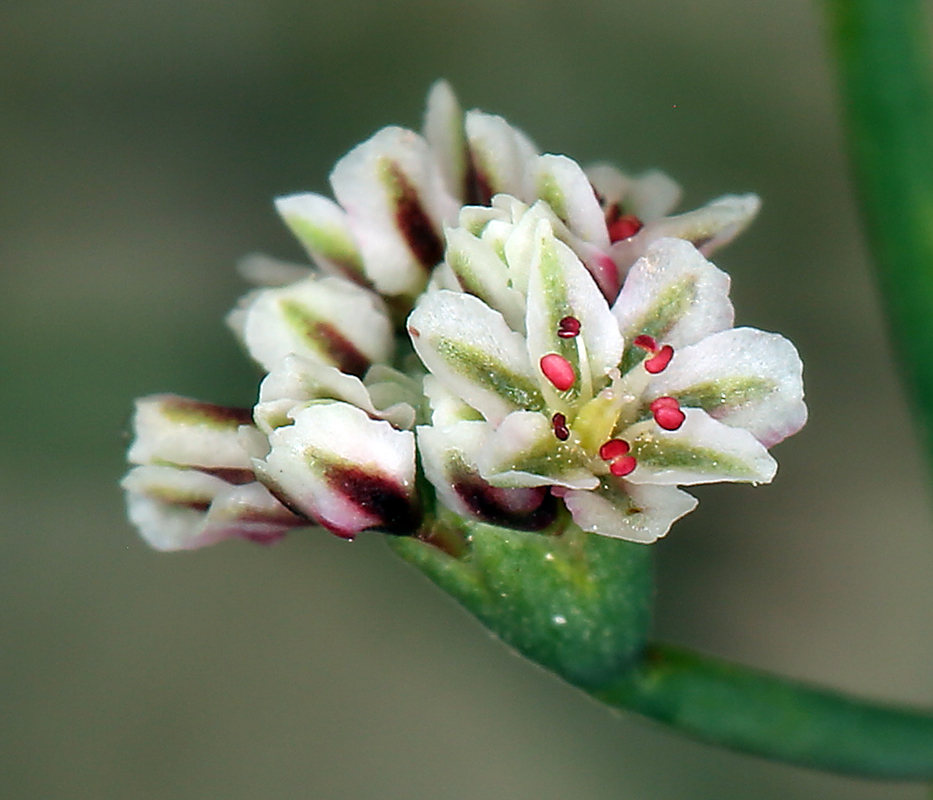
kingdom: Plantae
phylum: Tracheophyta
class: Magnoliopsida
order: Caryophyllales
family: Polygonaceae
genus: Eriogonum
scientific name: Eriogonum cernuum
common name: Nodding wild buckwheat
